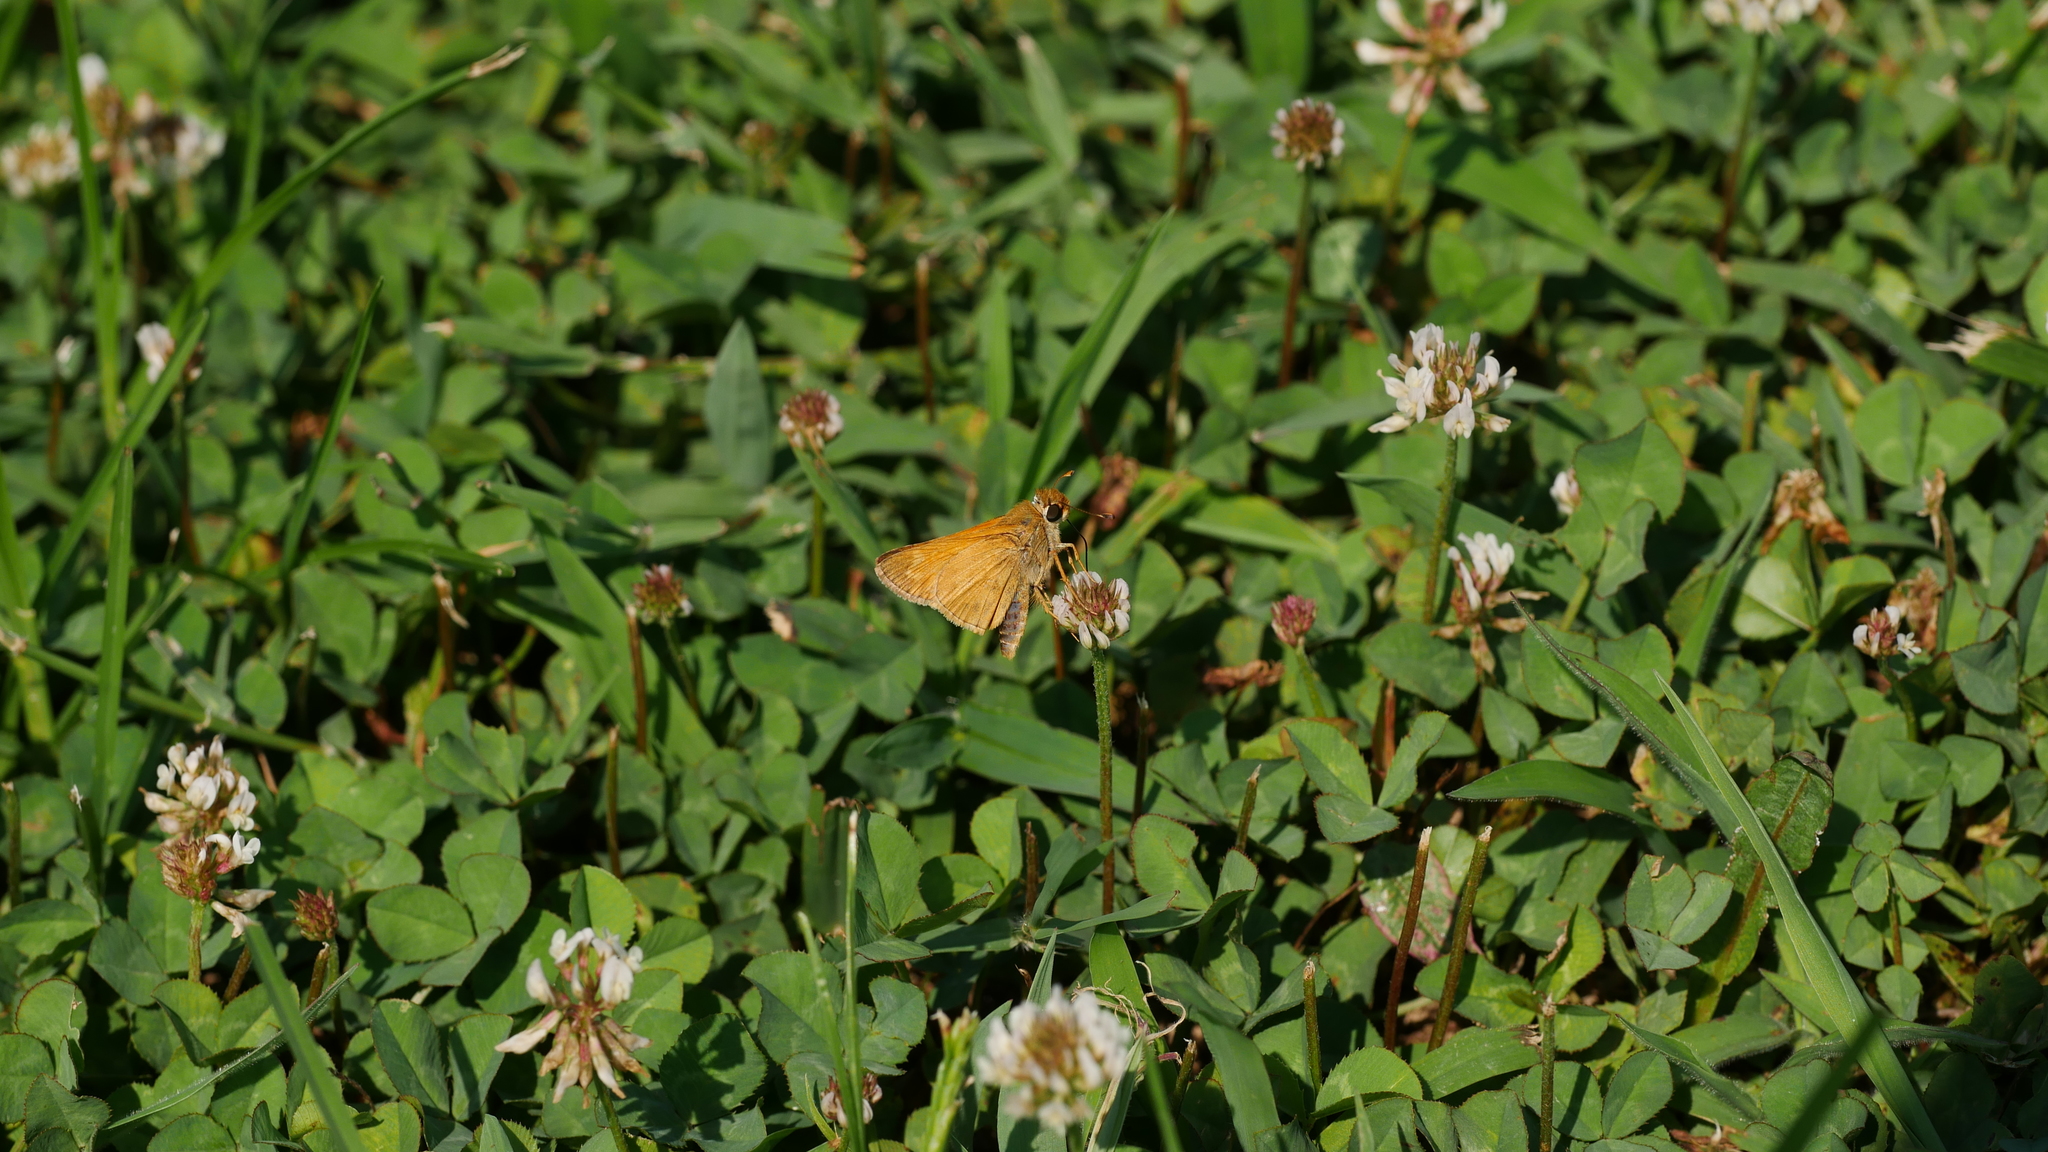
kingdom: Animalia
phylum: Arthropoda
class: Insecta
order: Lepidoptera
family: Hesperiidae
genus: Atalopedes
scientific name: Atalopedes
